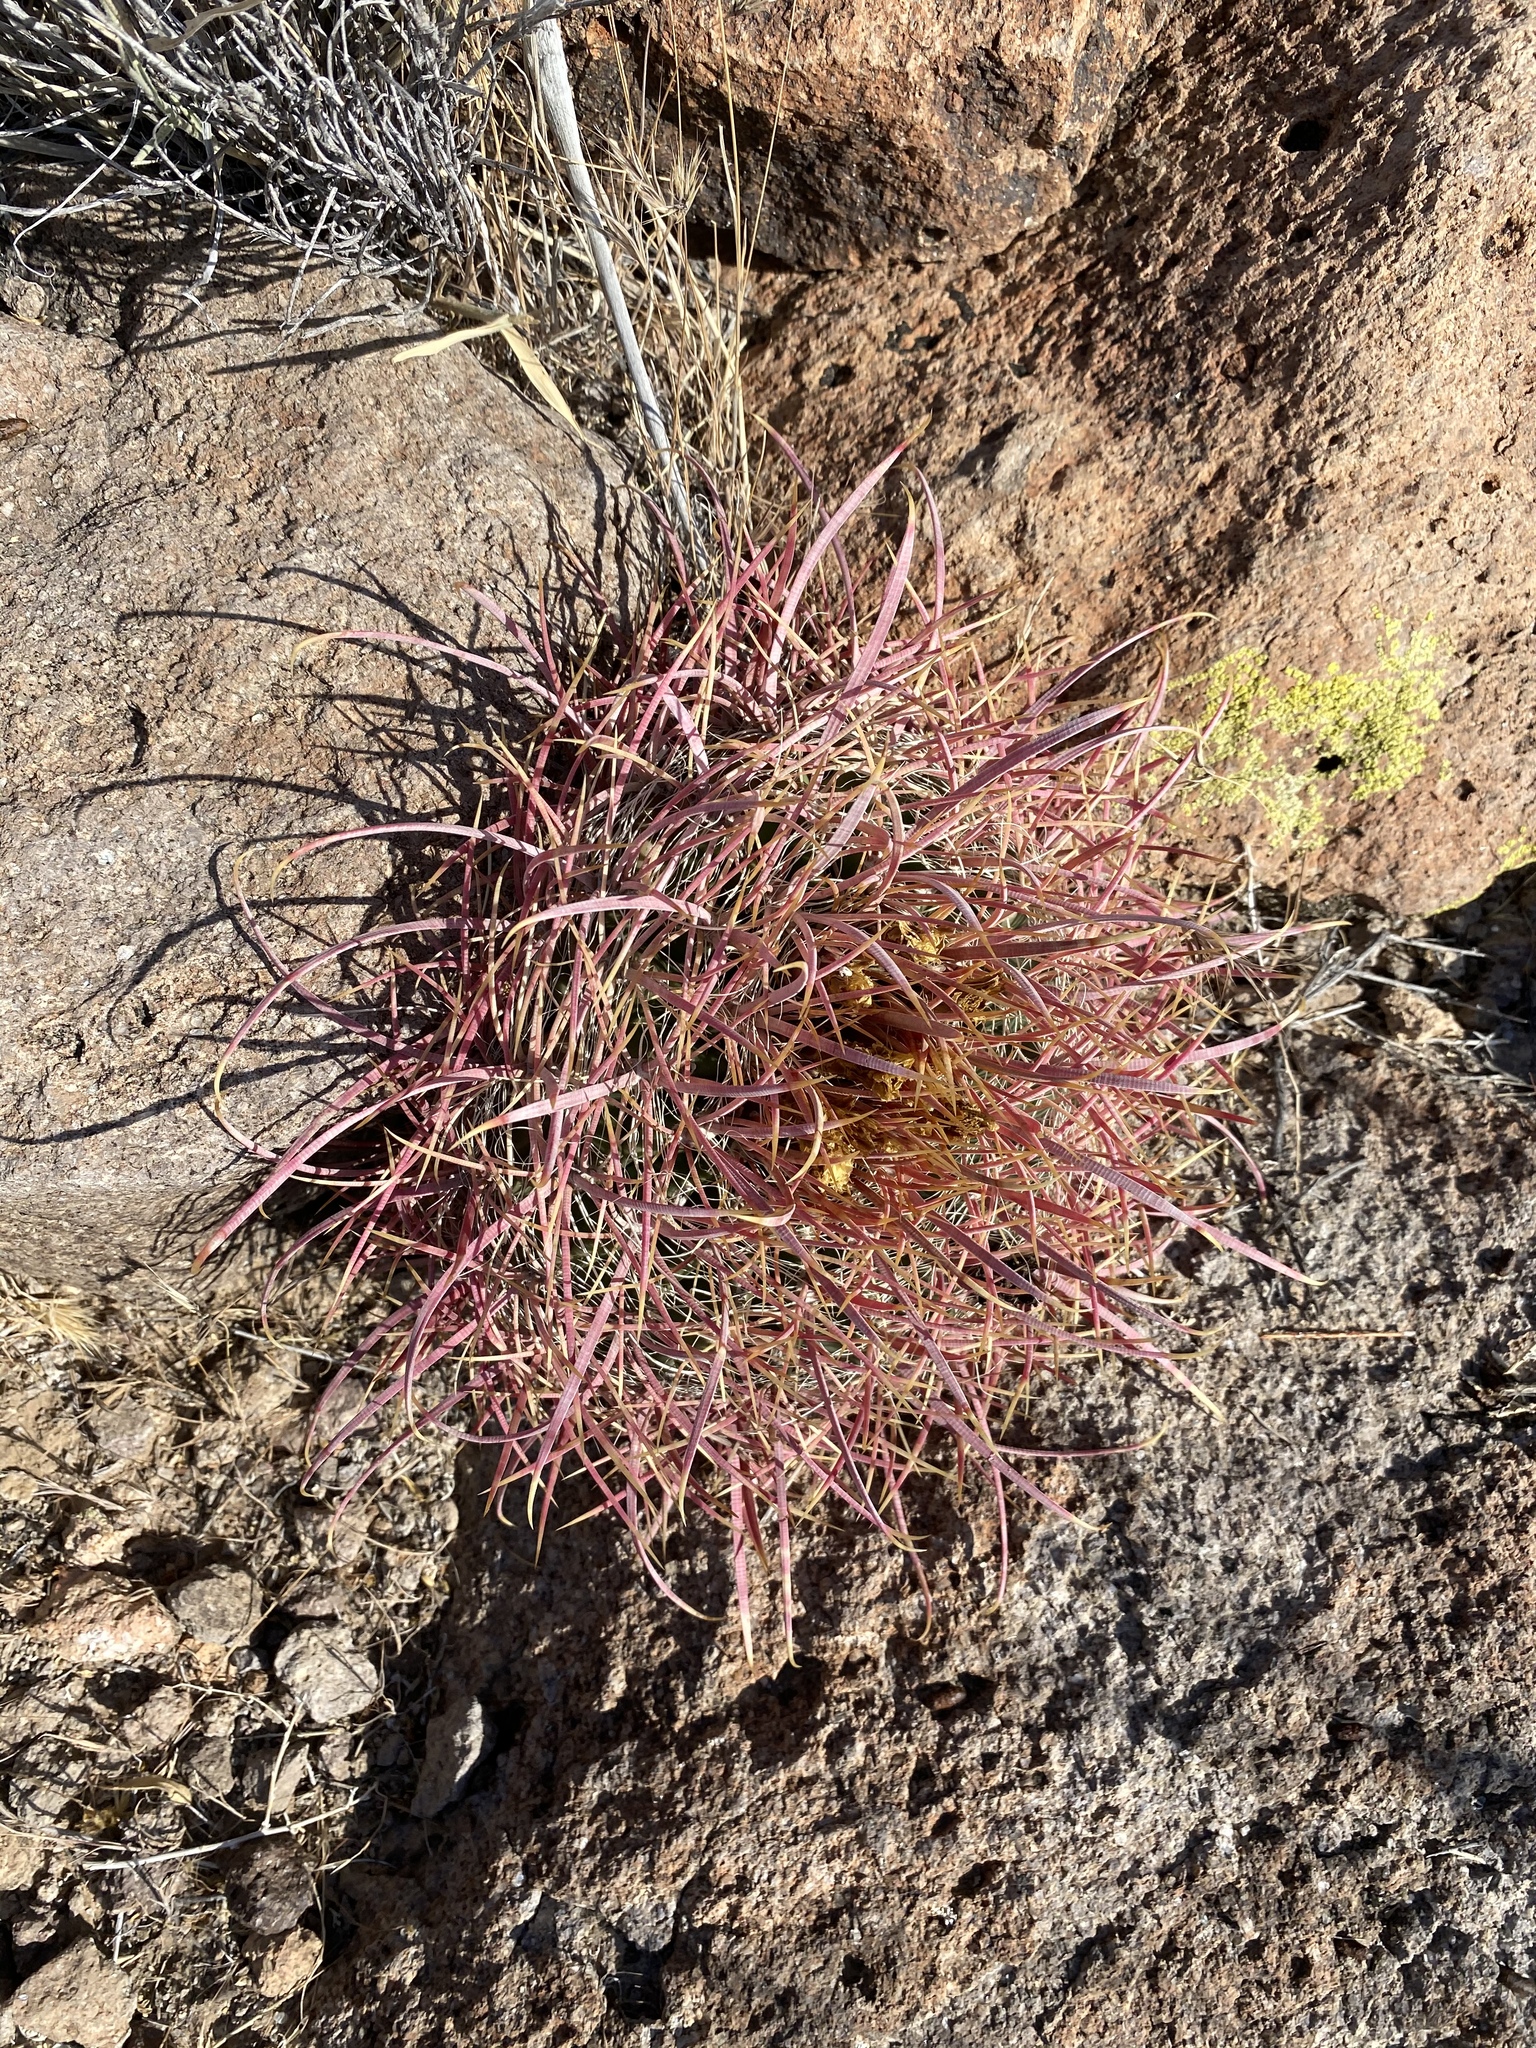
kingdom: Plantae
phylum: Tracheophyta
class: Magnoliopsida
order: Caryophyllales
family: Cactaceae
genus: Ferocactus
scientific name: Ferocactus cylindraceus
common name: California barrel cactus
